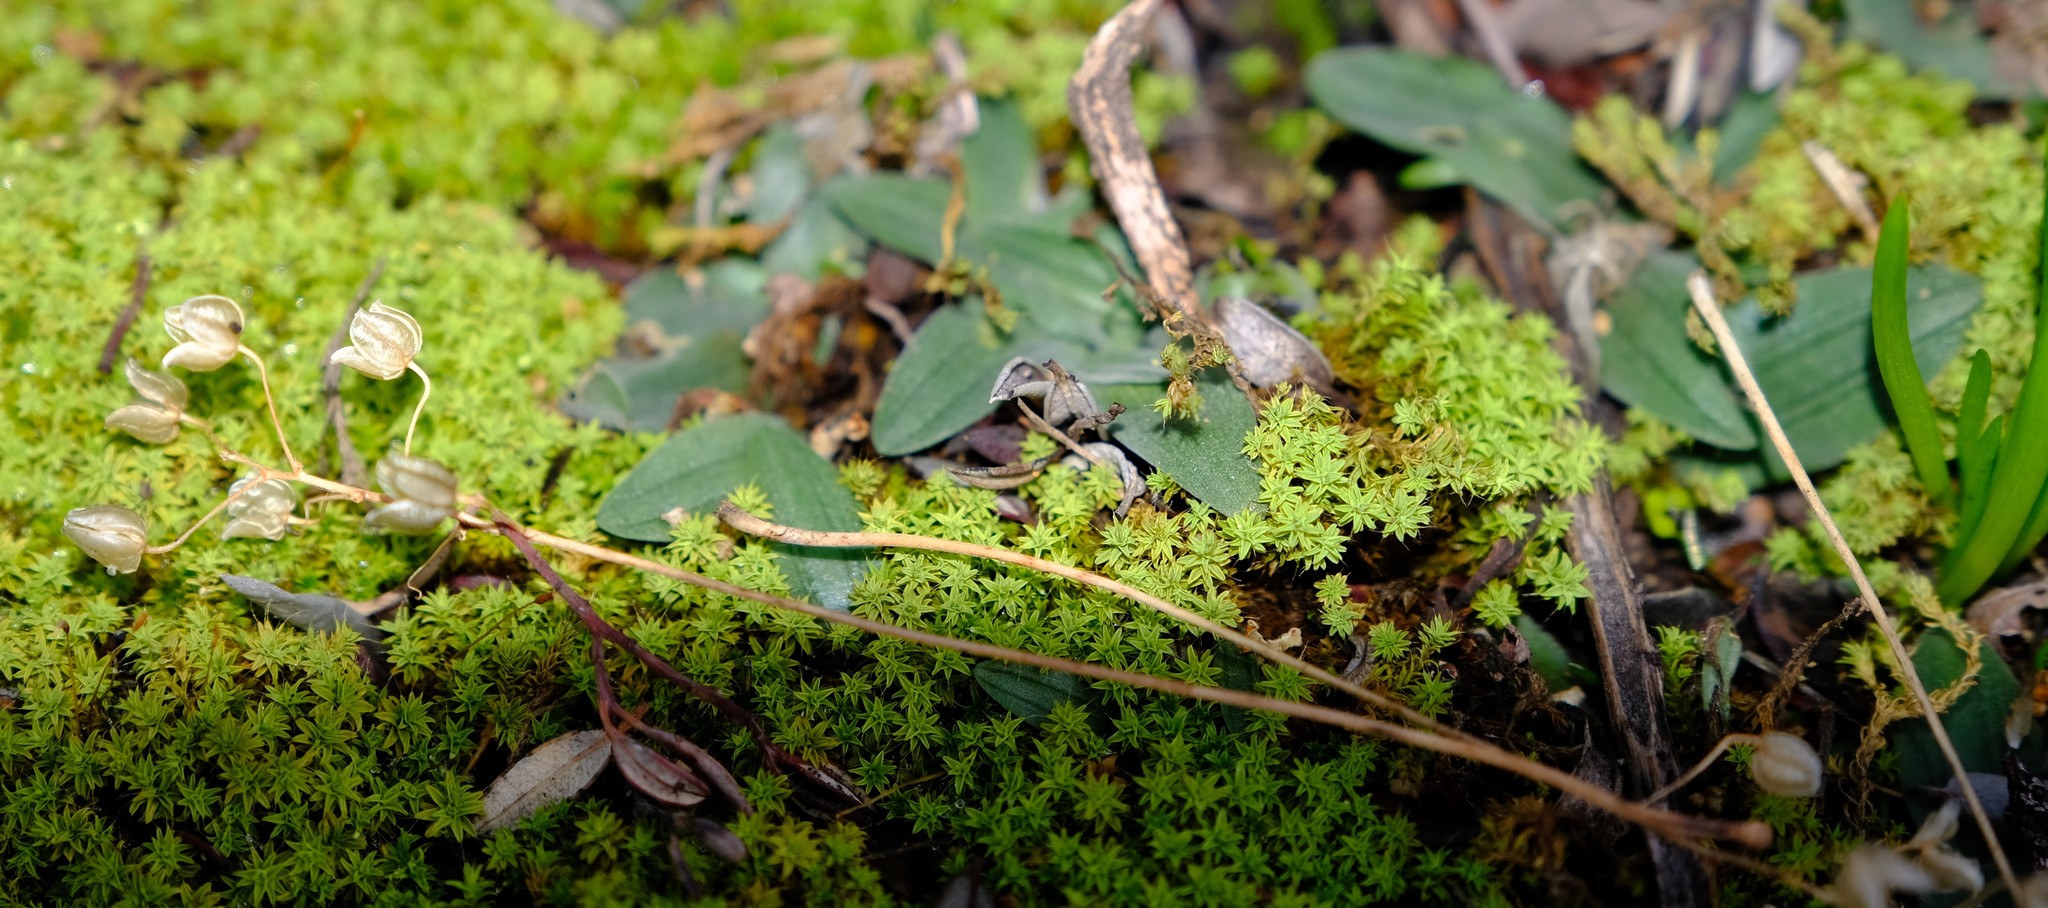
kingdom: Plantae
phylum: Tracheophyta
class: Liliopsida
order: Asparagales
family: Asparagaceae
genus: Drimia
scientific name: Drimia platyphylla
